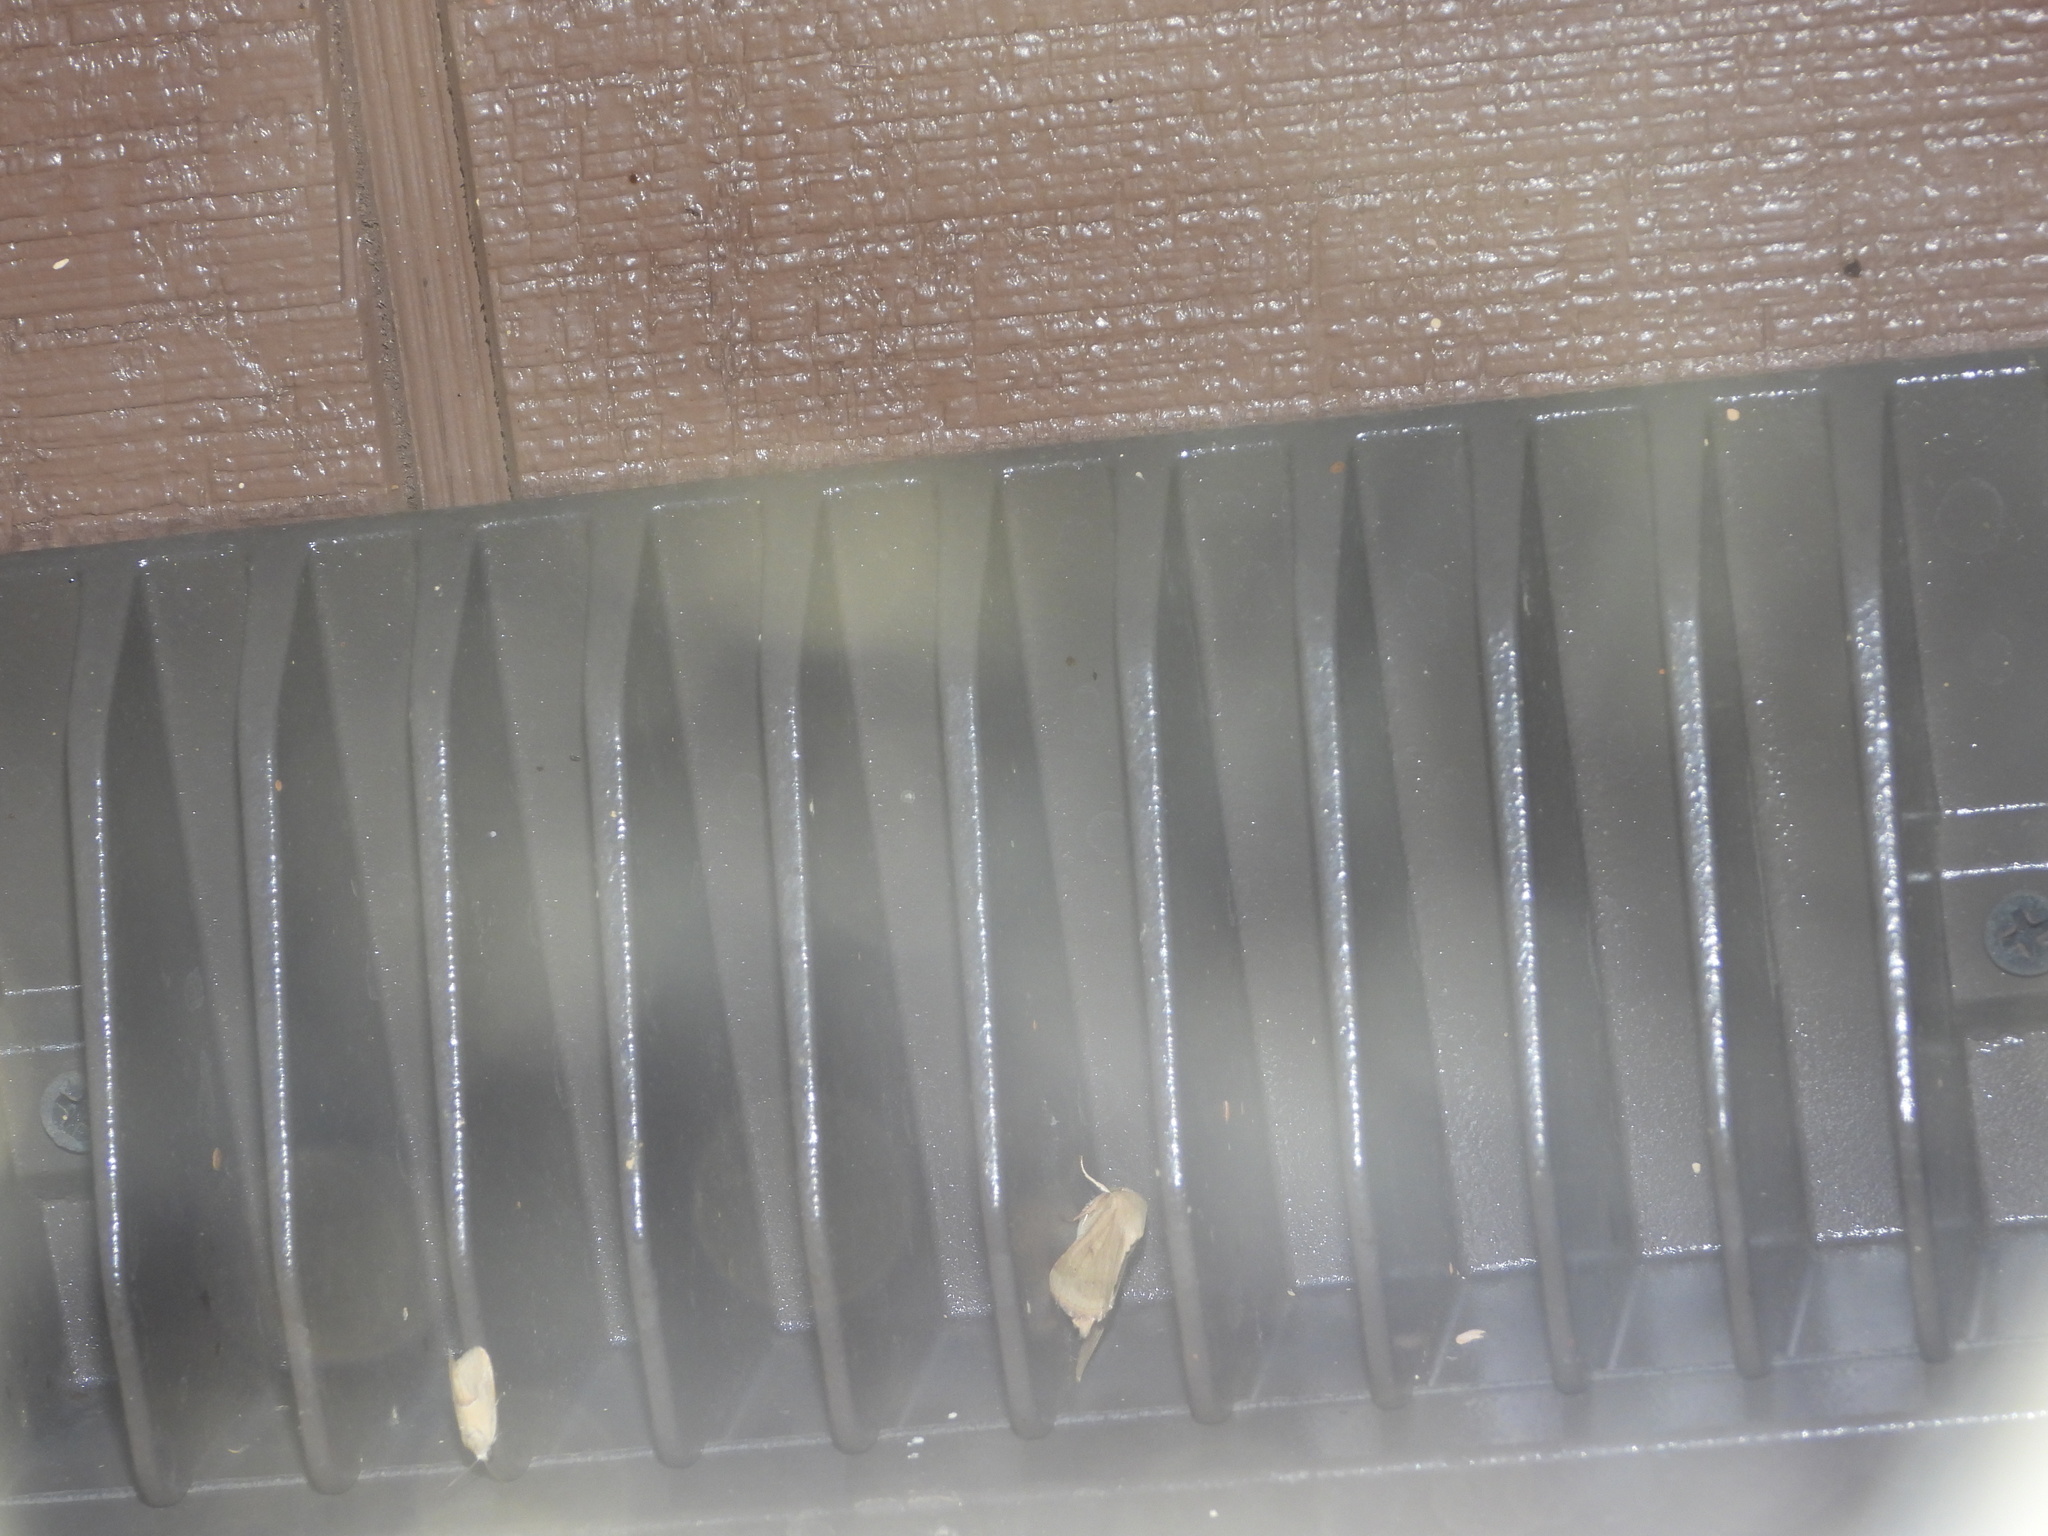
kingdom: Animalia
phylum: Arthropoda
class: Insecta
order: Lepidoptera
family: Noctuidae
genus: Ponometia
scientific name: Ponometia venustula
